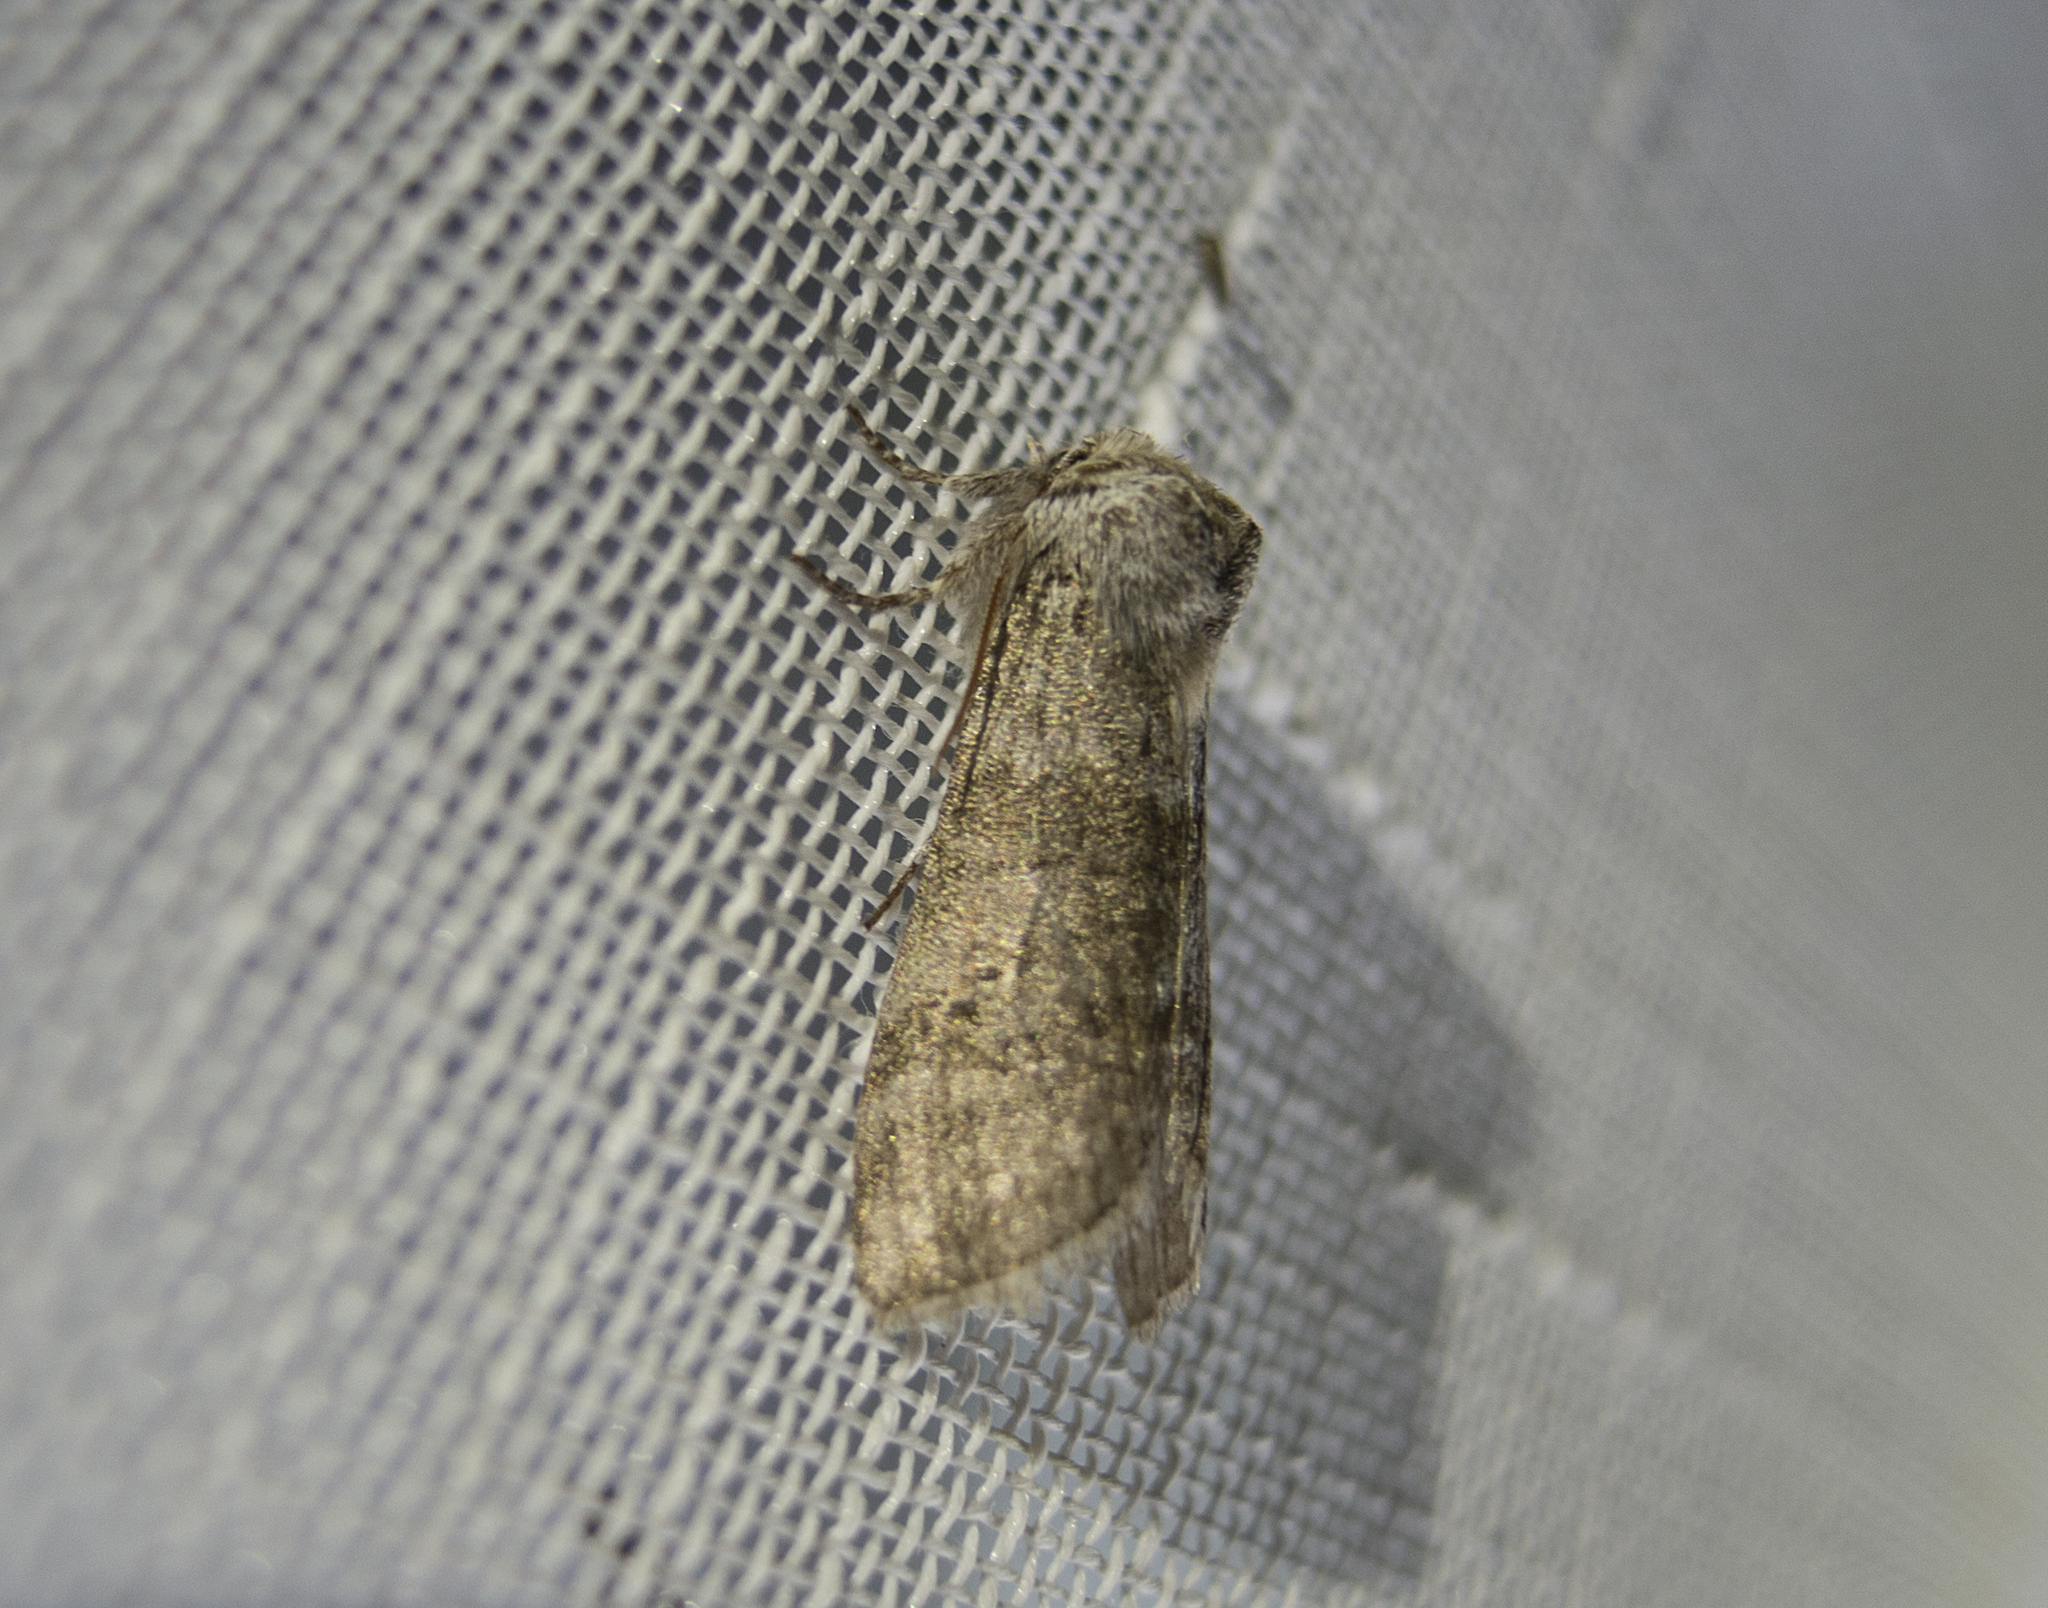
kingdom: Animalia
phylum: Arthropoda
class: Insecta
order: Lepidoptera
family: Drepanidae
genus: Polyploca
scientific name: Polyploca ruficollis
